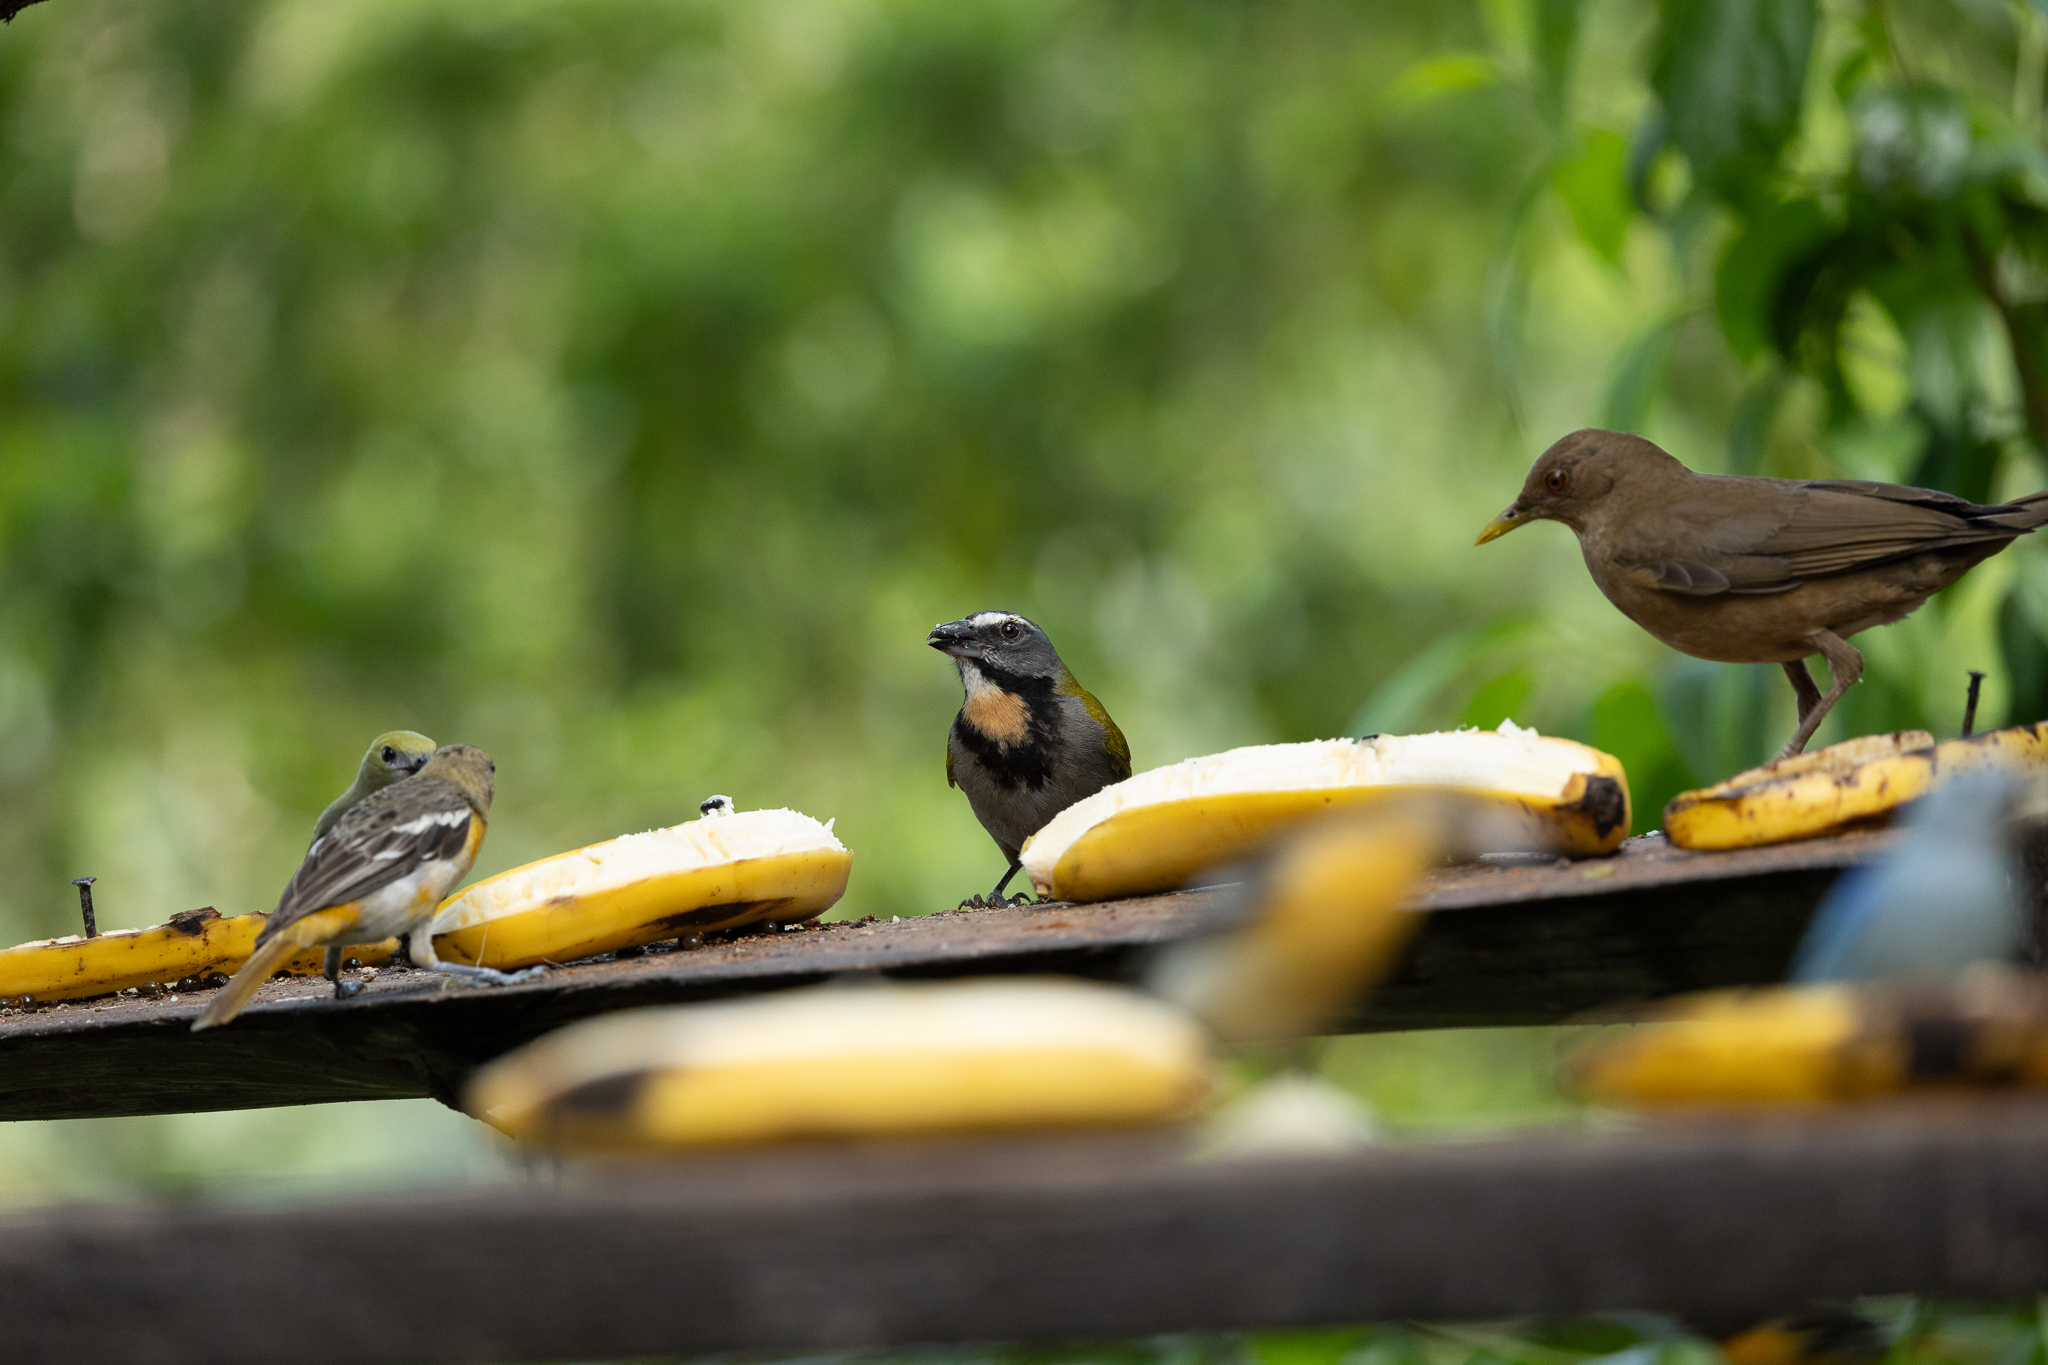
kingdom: Animalia
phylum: Chordata
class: Aves
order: Passeriformes
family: Thraupidae
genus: Saltator
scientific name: Saltator maximus
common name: Buff-throated saltator
